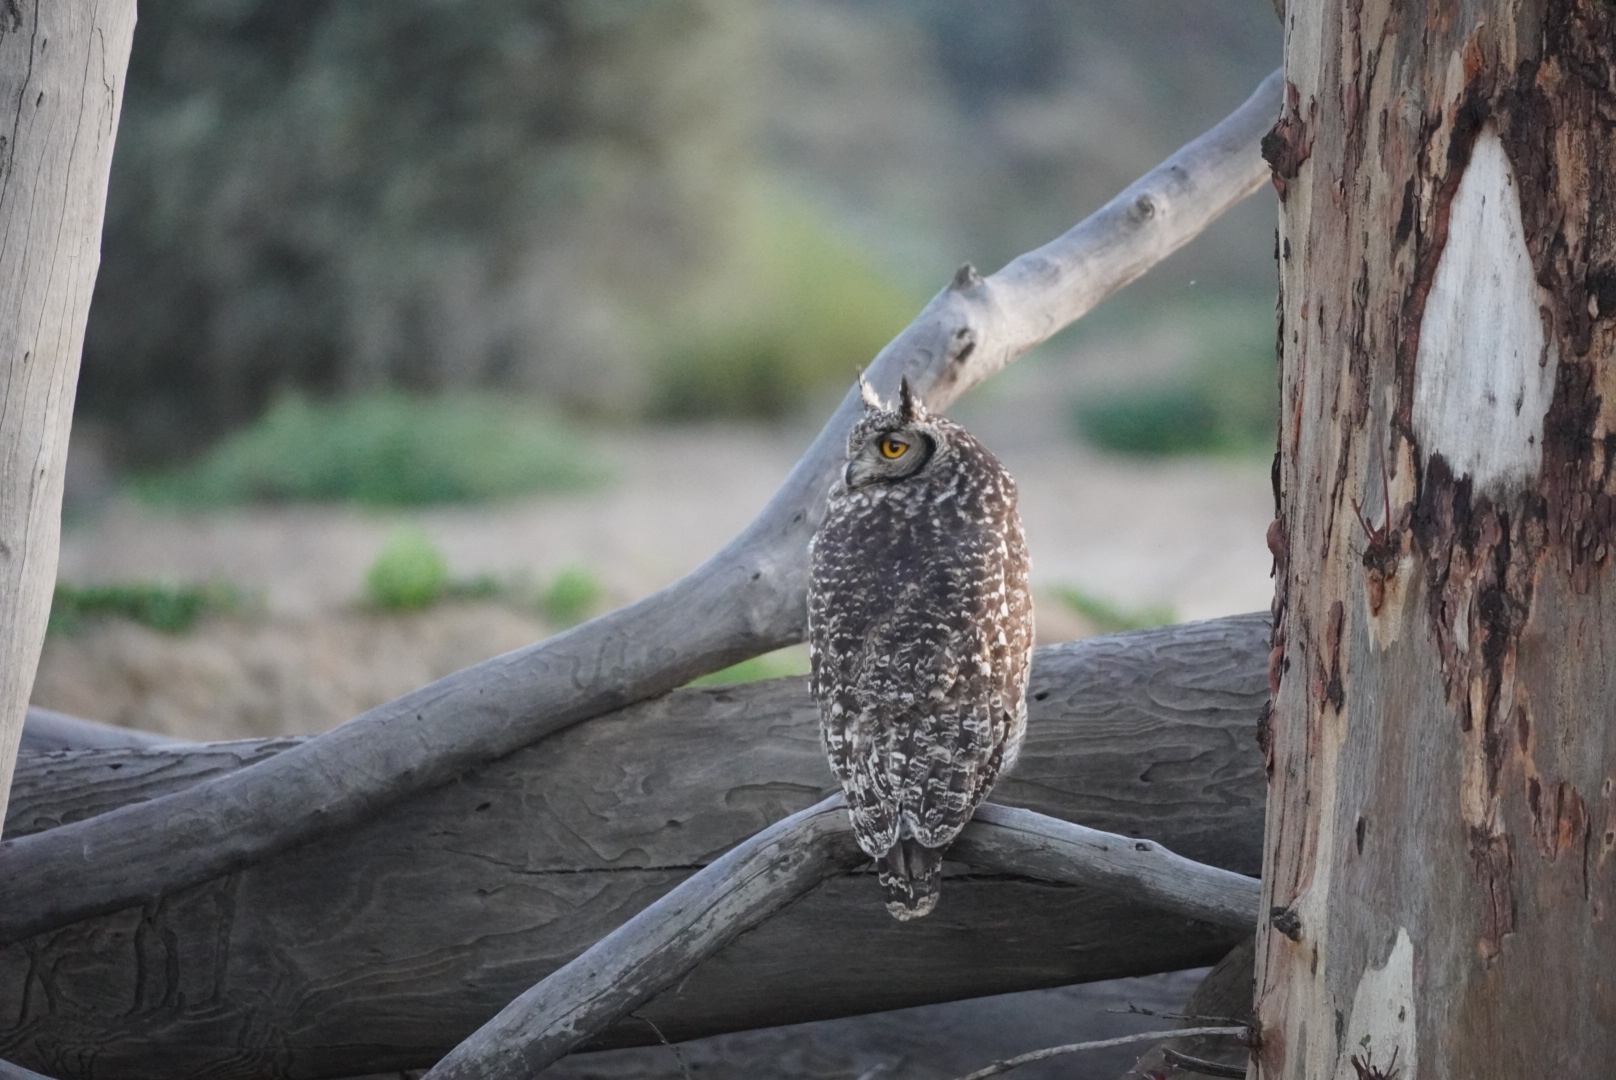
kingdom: Animalia
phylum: Chordata
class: Aves
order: Strigiformes
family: Strigidae
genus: Bubo
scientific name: Bubo africanus
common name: Spotted eagle-owl
